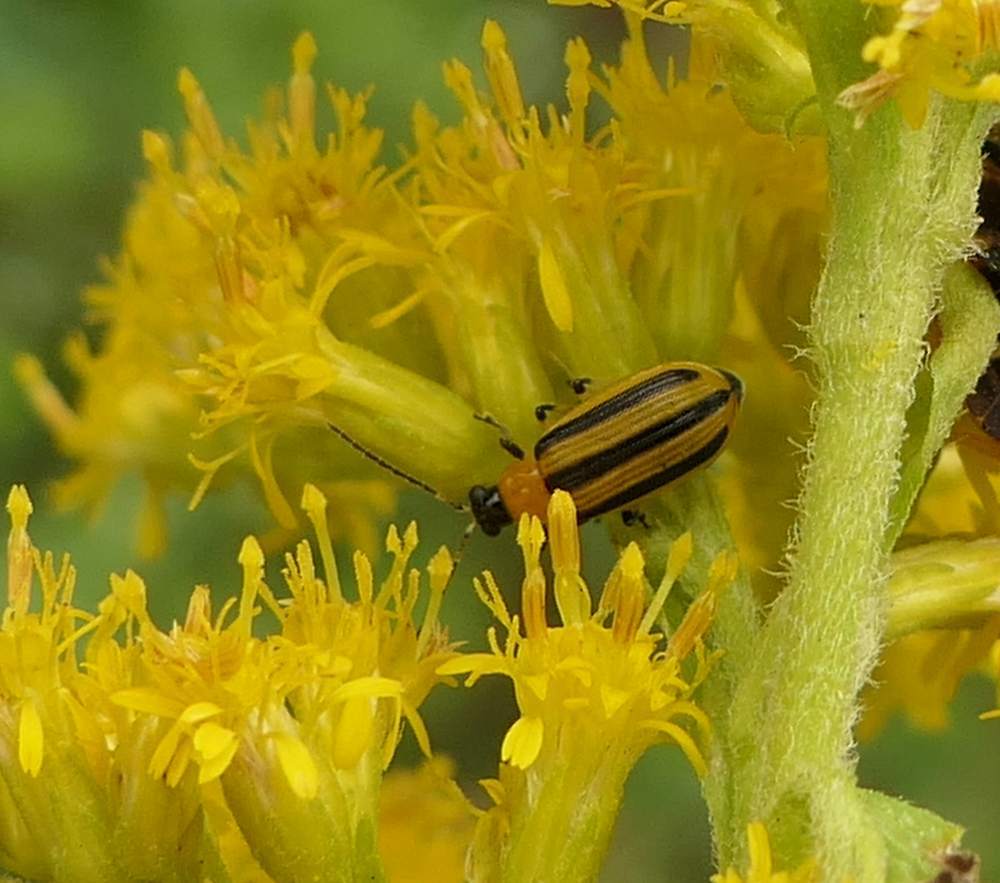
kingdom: Animalia
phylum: Arthropoda
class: Insecta
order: Coleoptera
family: Chrysomelidae
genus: Acalymma
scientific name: Acalymma vittatum
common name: Striped cucumber beetle
